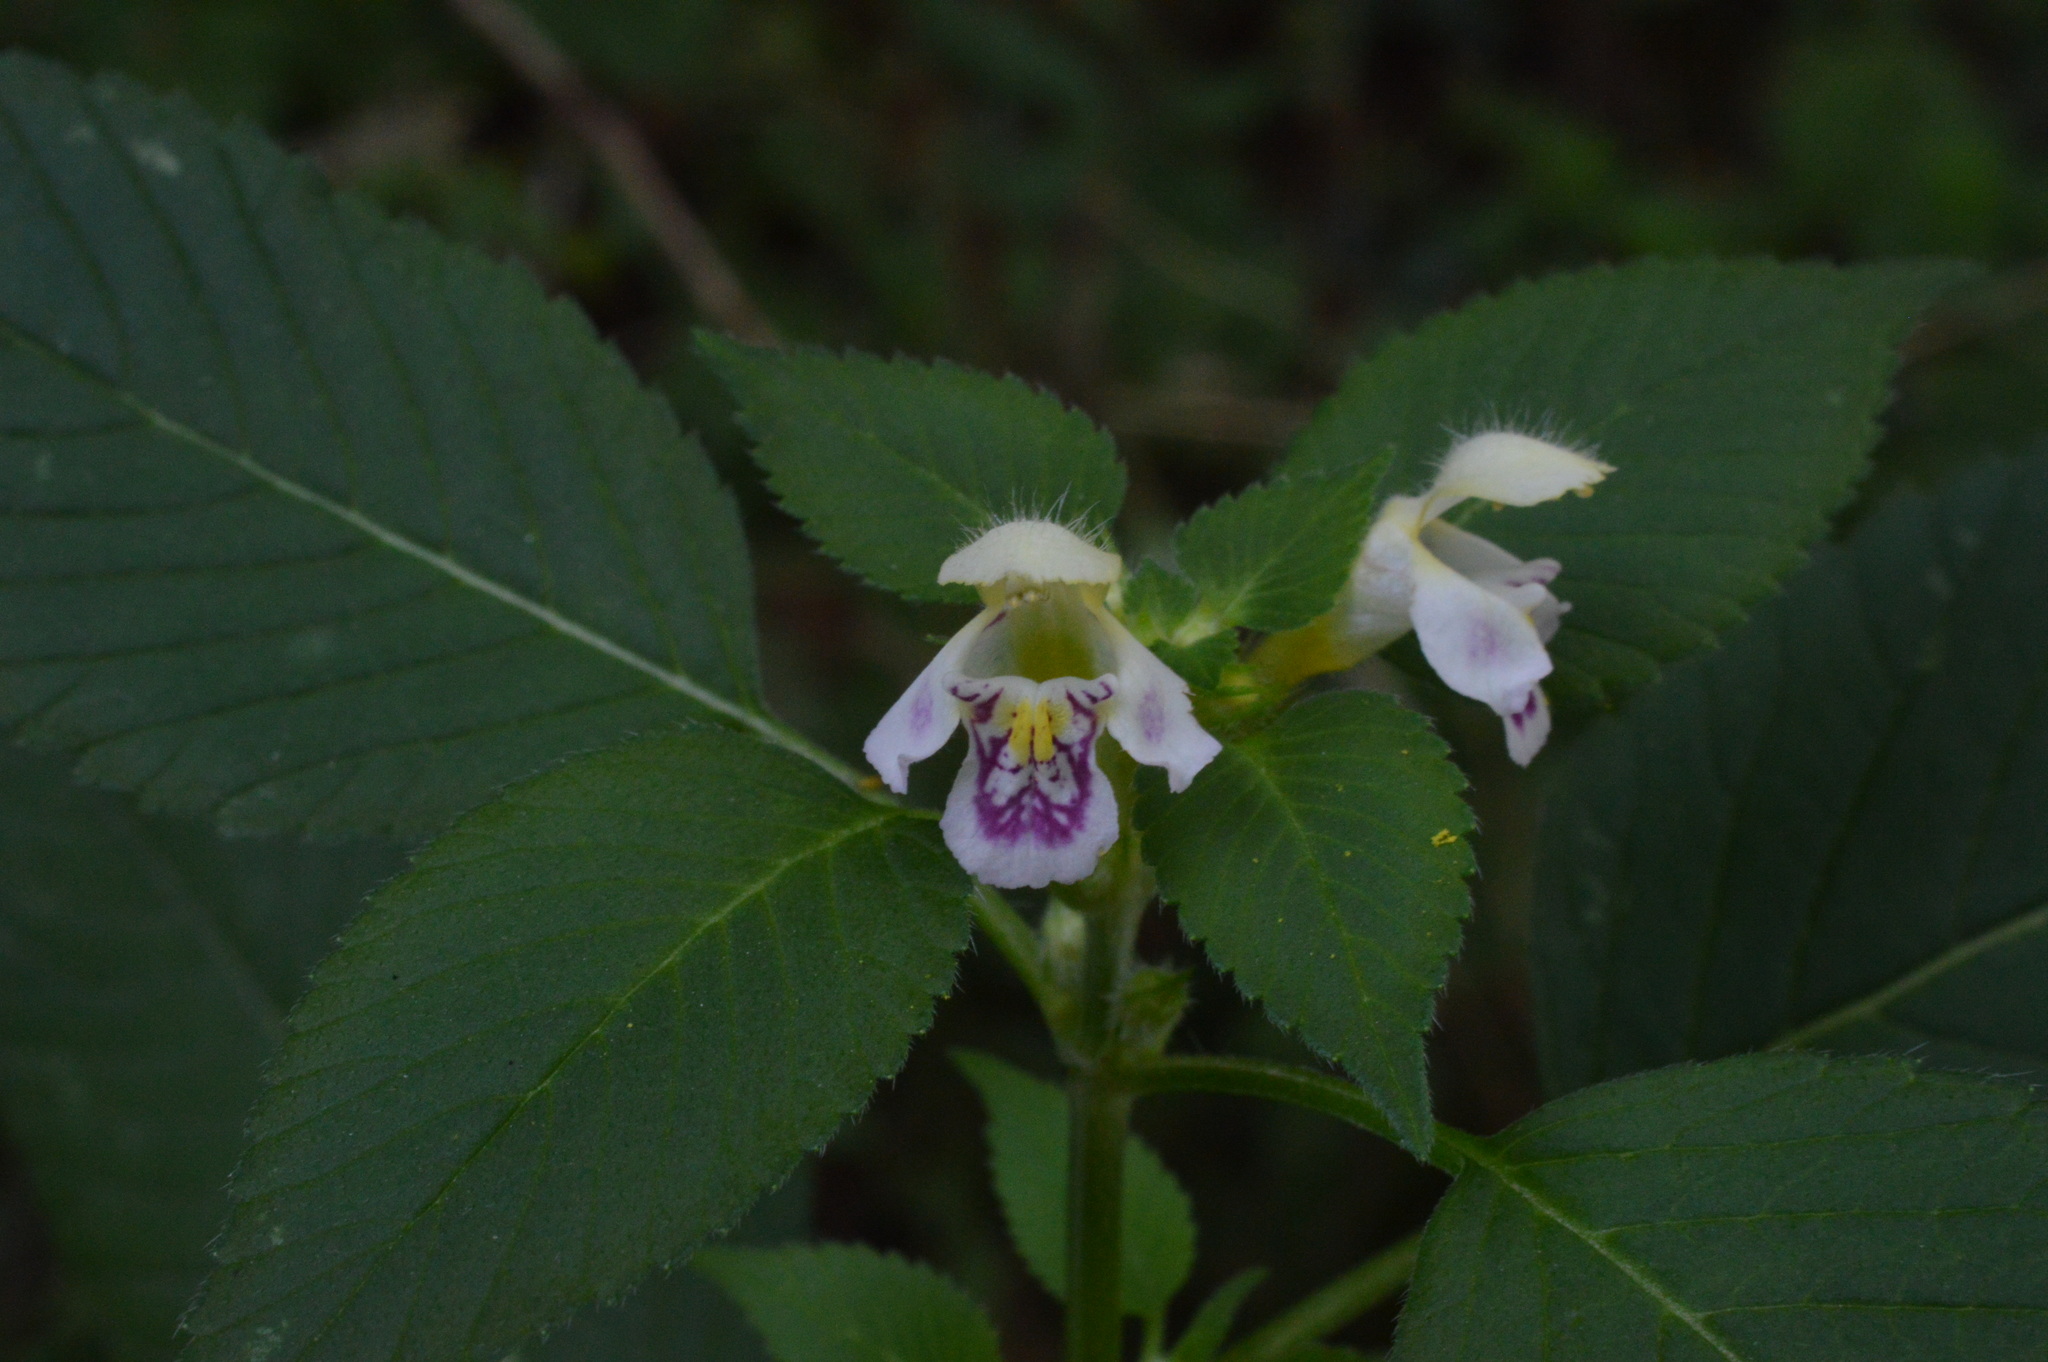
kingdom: Plantae
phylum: Tracheophyta
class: Magnoliopsida
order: Lamiales
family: Lamiaceae
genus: Galeopsis
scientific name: Galeopsis pubescens
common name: Downy hemp-nettle
